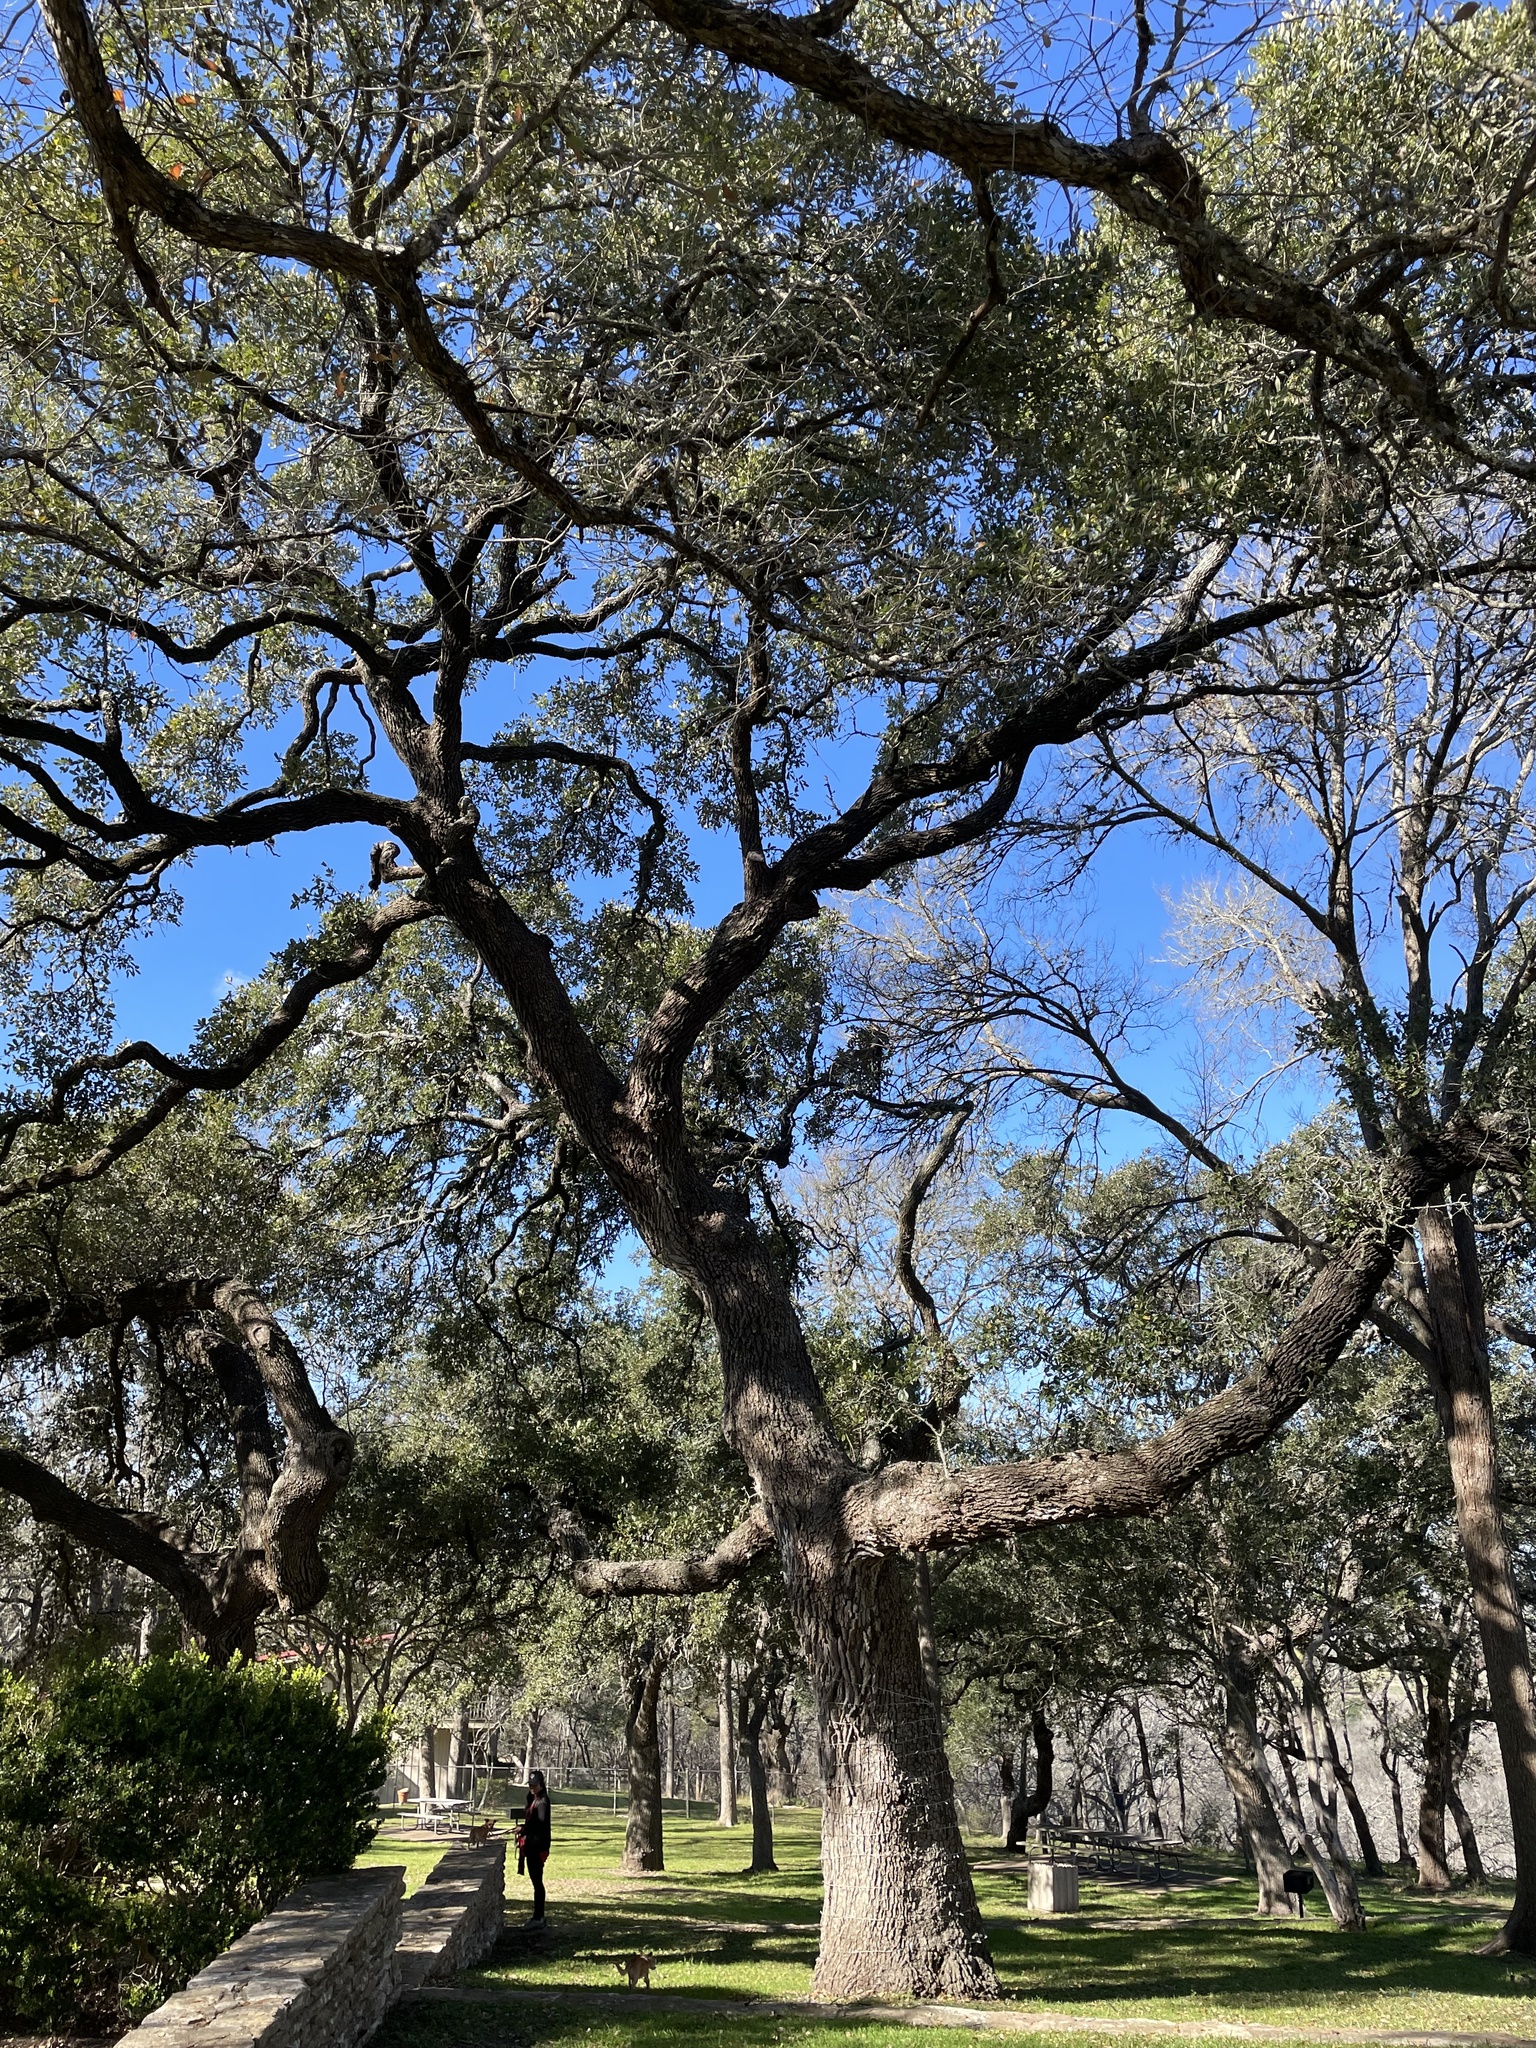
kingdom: Plantae
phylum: Tracheophyta
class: Magnoliopsida
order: Fagales
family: Fagaceae
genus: Quercus
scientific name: Quercus fusiformis
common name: Texas live oak
